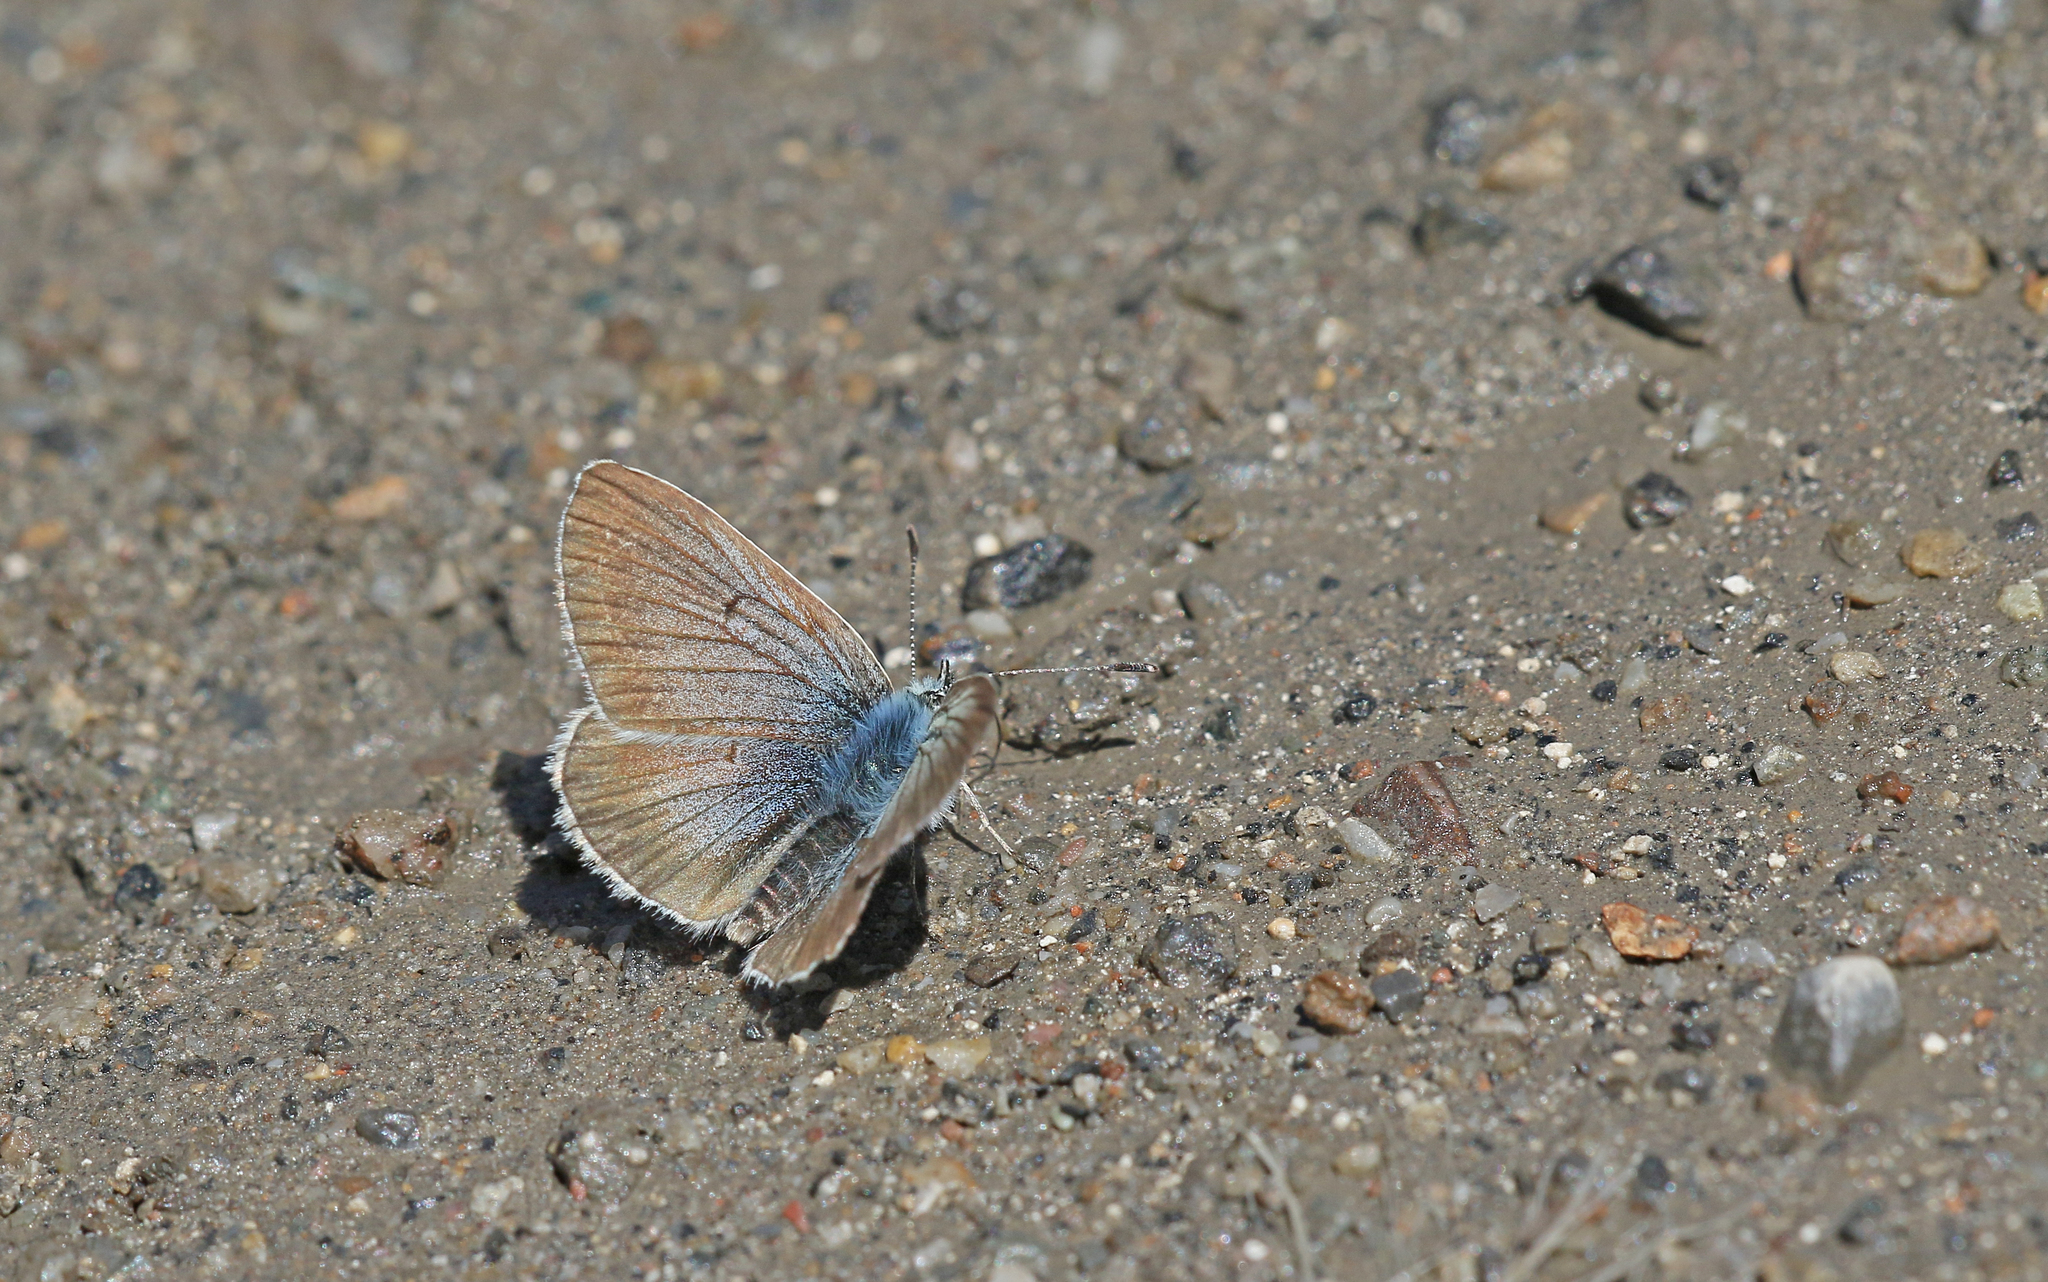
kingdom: Animalia
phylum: Arthropoda
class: Insecta
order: Lepidoptera
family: Lycaenidae
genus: Pseudoaricia
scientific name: Pseudoaricia nicias
